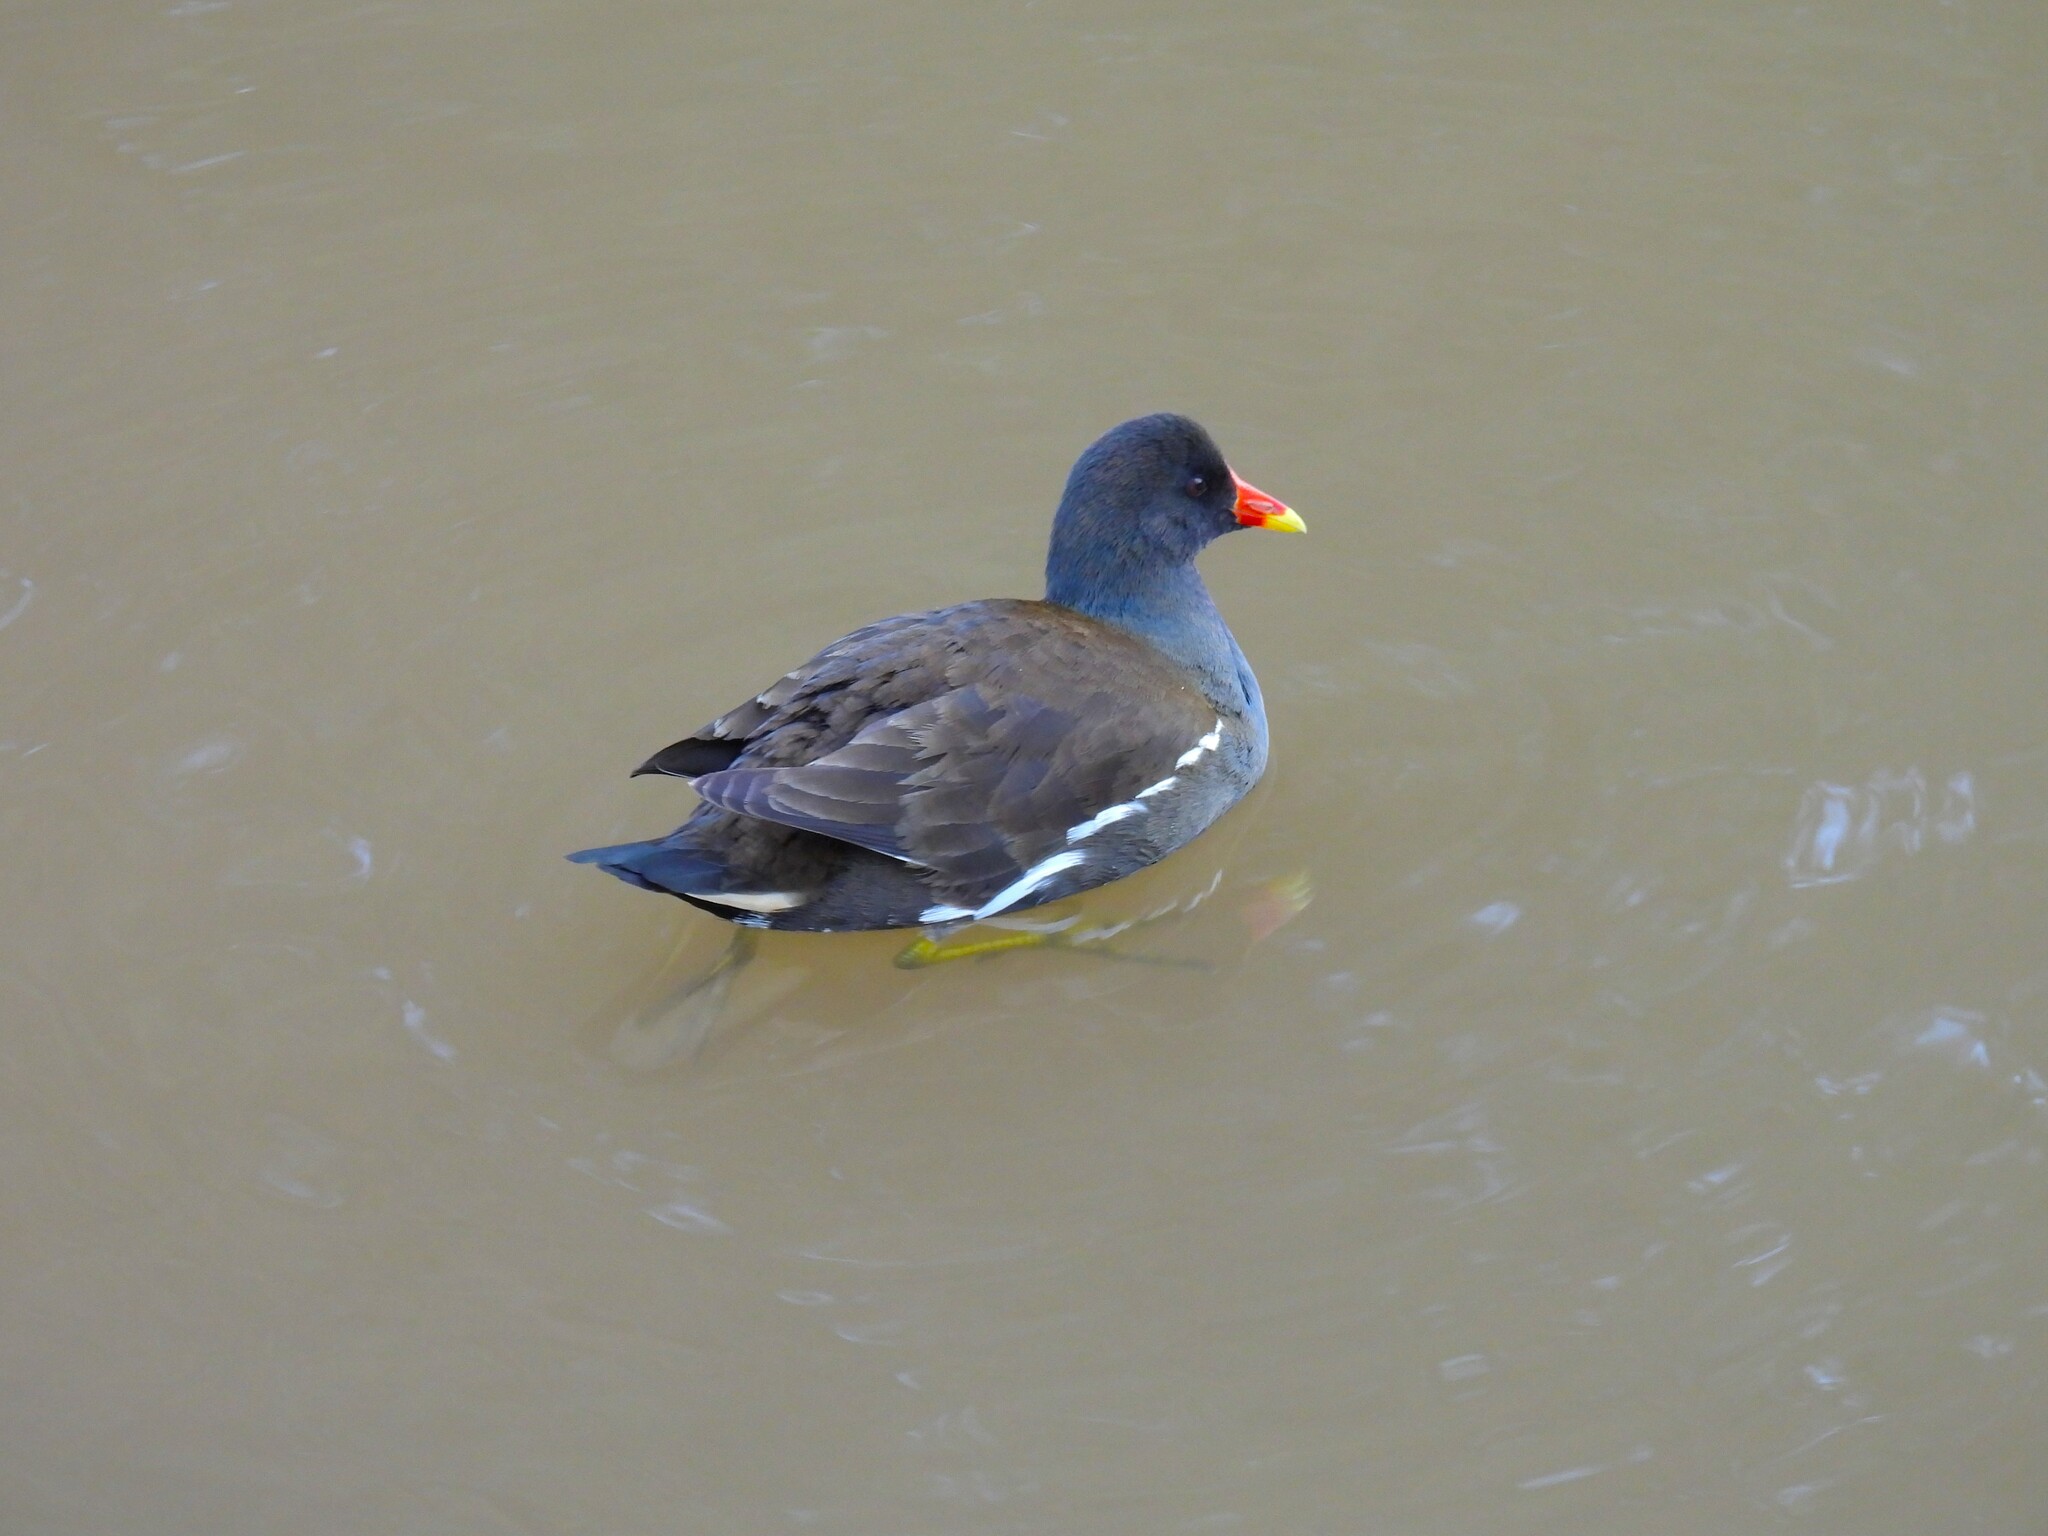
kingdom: Animalia
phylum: Chordata
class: Aves
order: Gruiformes
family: Rallidae
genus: Gallinula
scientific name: Gallinula chloropus
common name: Common moorhen
